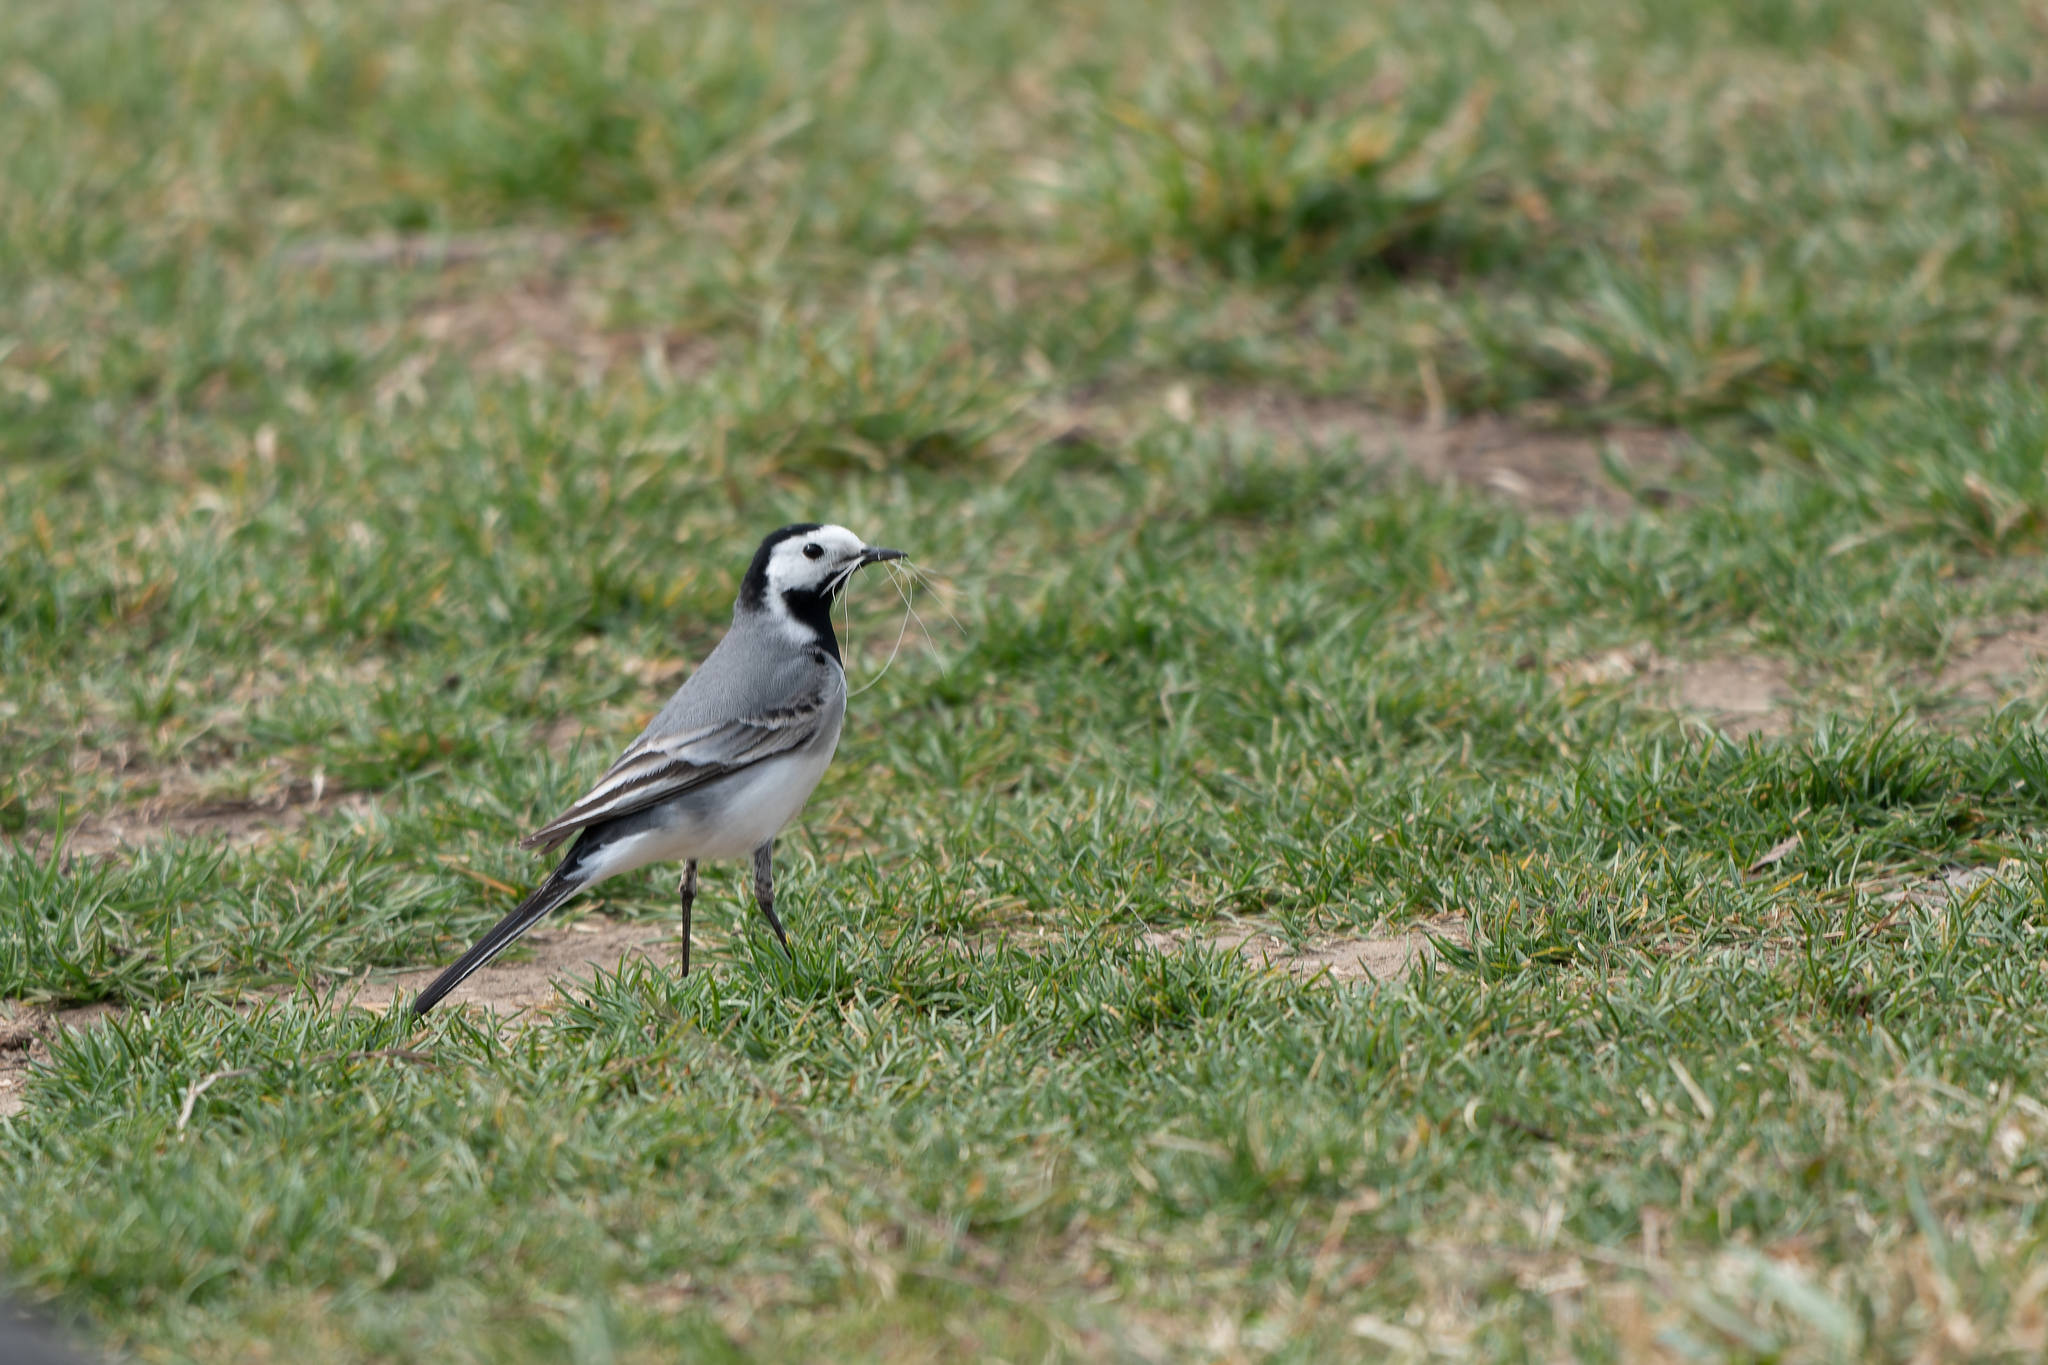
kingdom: Animalia
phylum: Chordata
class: Aves
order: Passeriformes
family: Motacillidae
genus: Motacilla
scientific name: Motacilla alba
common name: White wagtail
